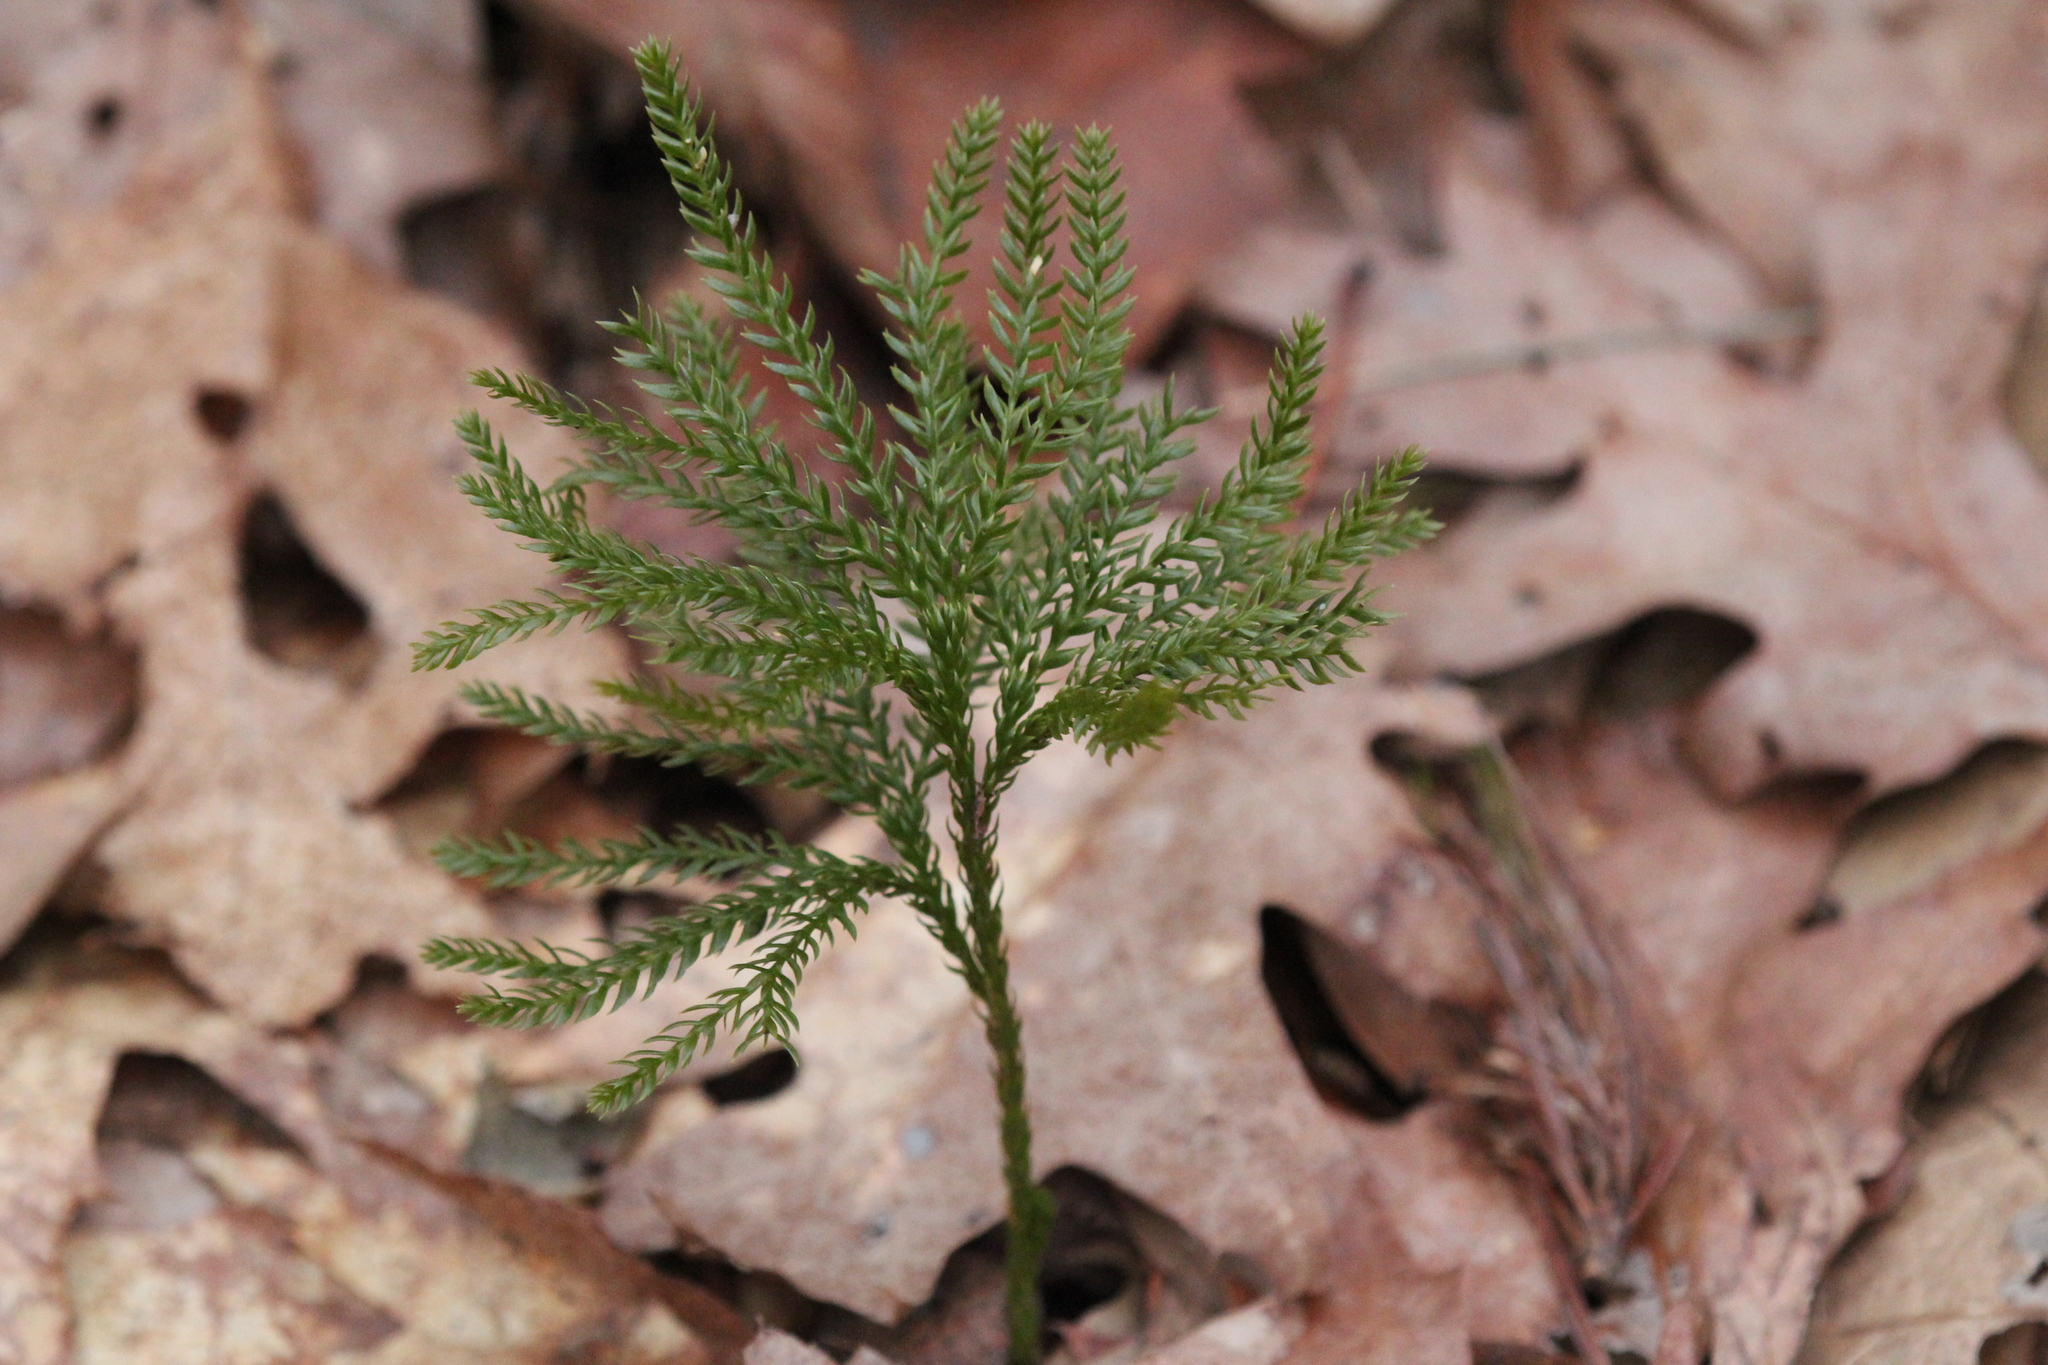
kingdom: Plantae
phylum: Tracheophyta
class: Lycopodiopsida
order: Lycopodiales
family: Lycopodiaceae
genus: Dendrolycopodium
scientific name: Dendrolycopodium obscurum
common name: Common ground-pine
